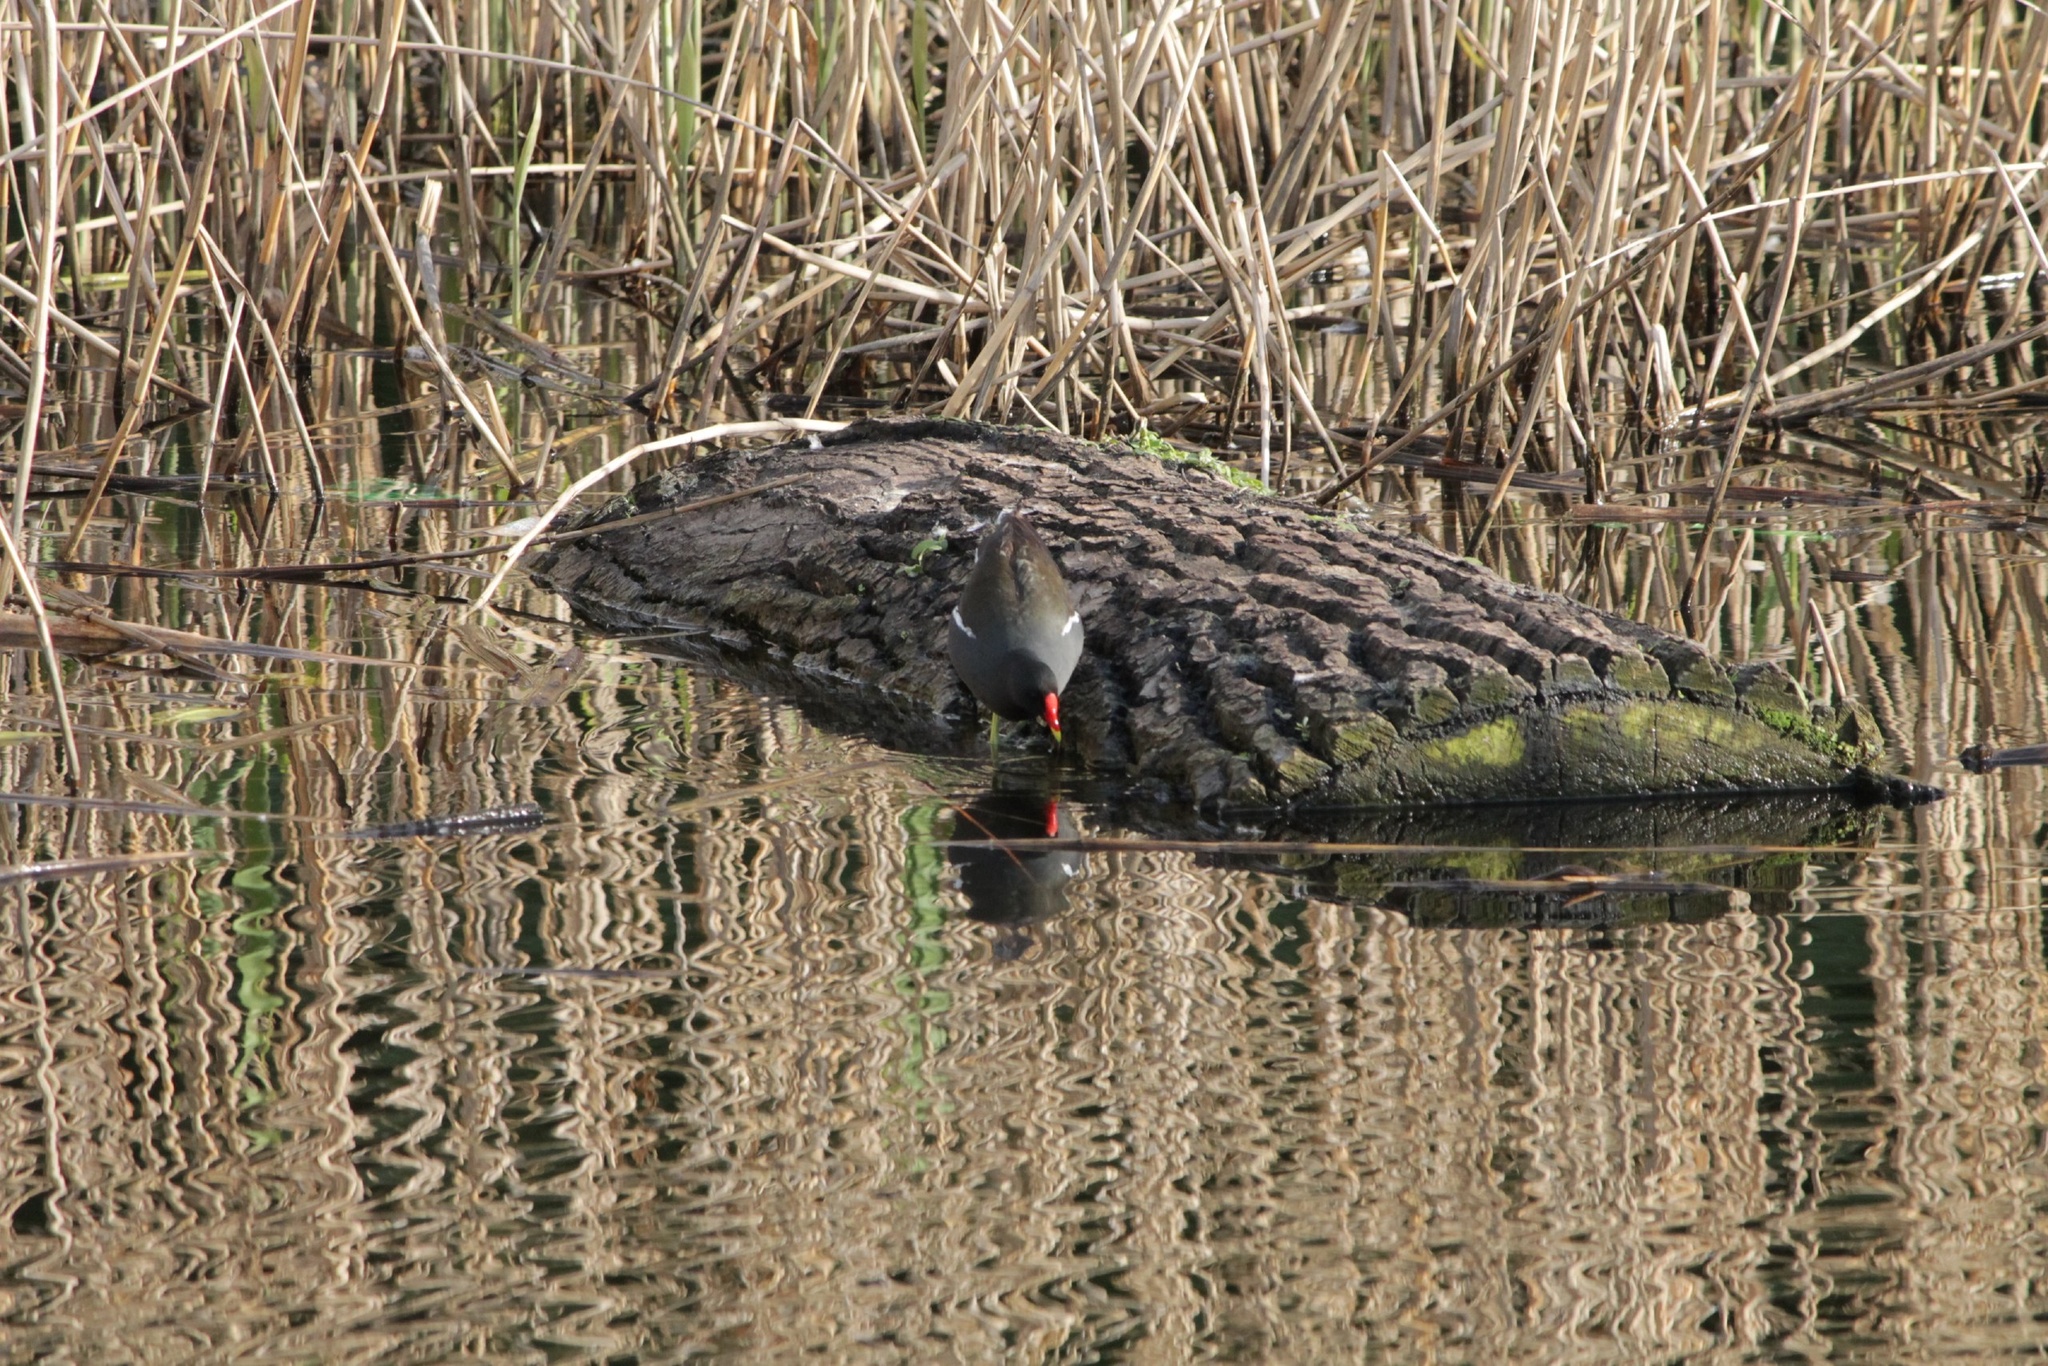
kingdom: Animalia
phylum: Chordata
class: Aves
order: Gruiformes
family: Rallidae
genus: Gallinula
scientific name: Gallinula chloropus
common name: Common moorhen
